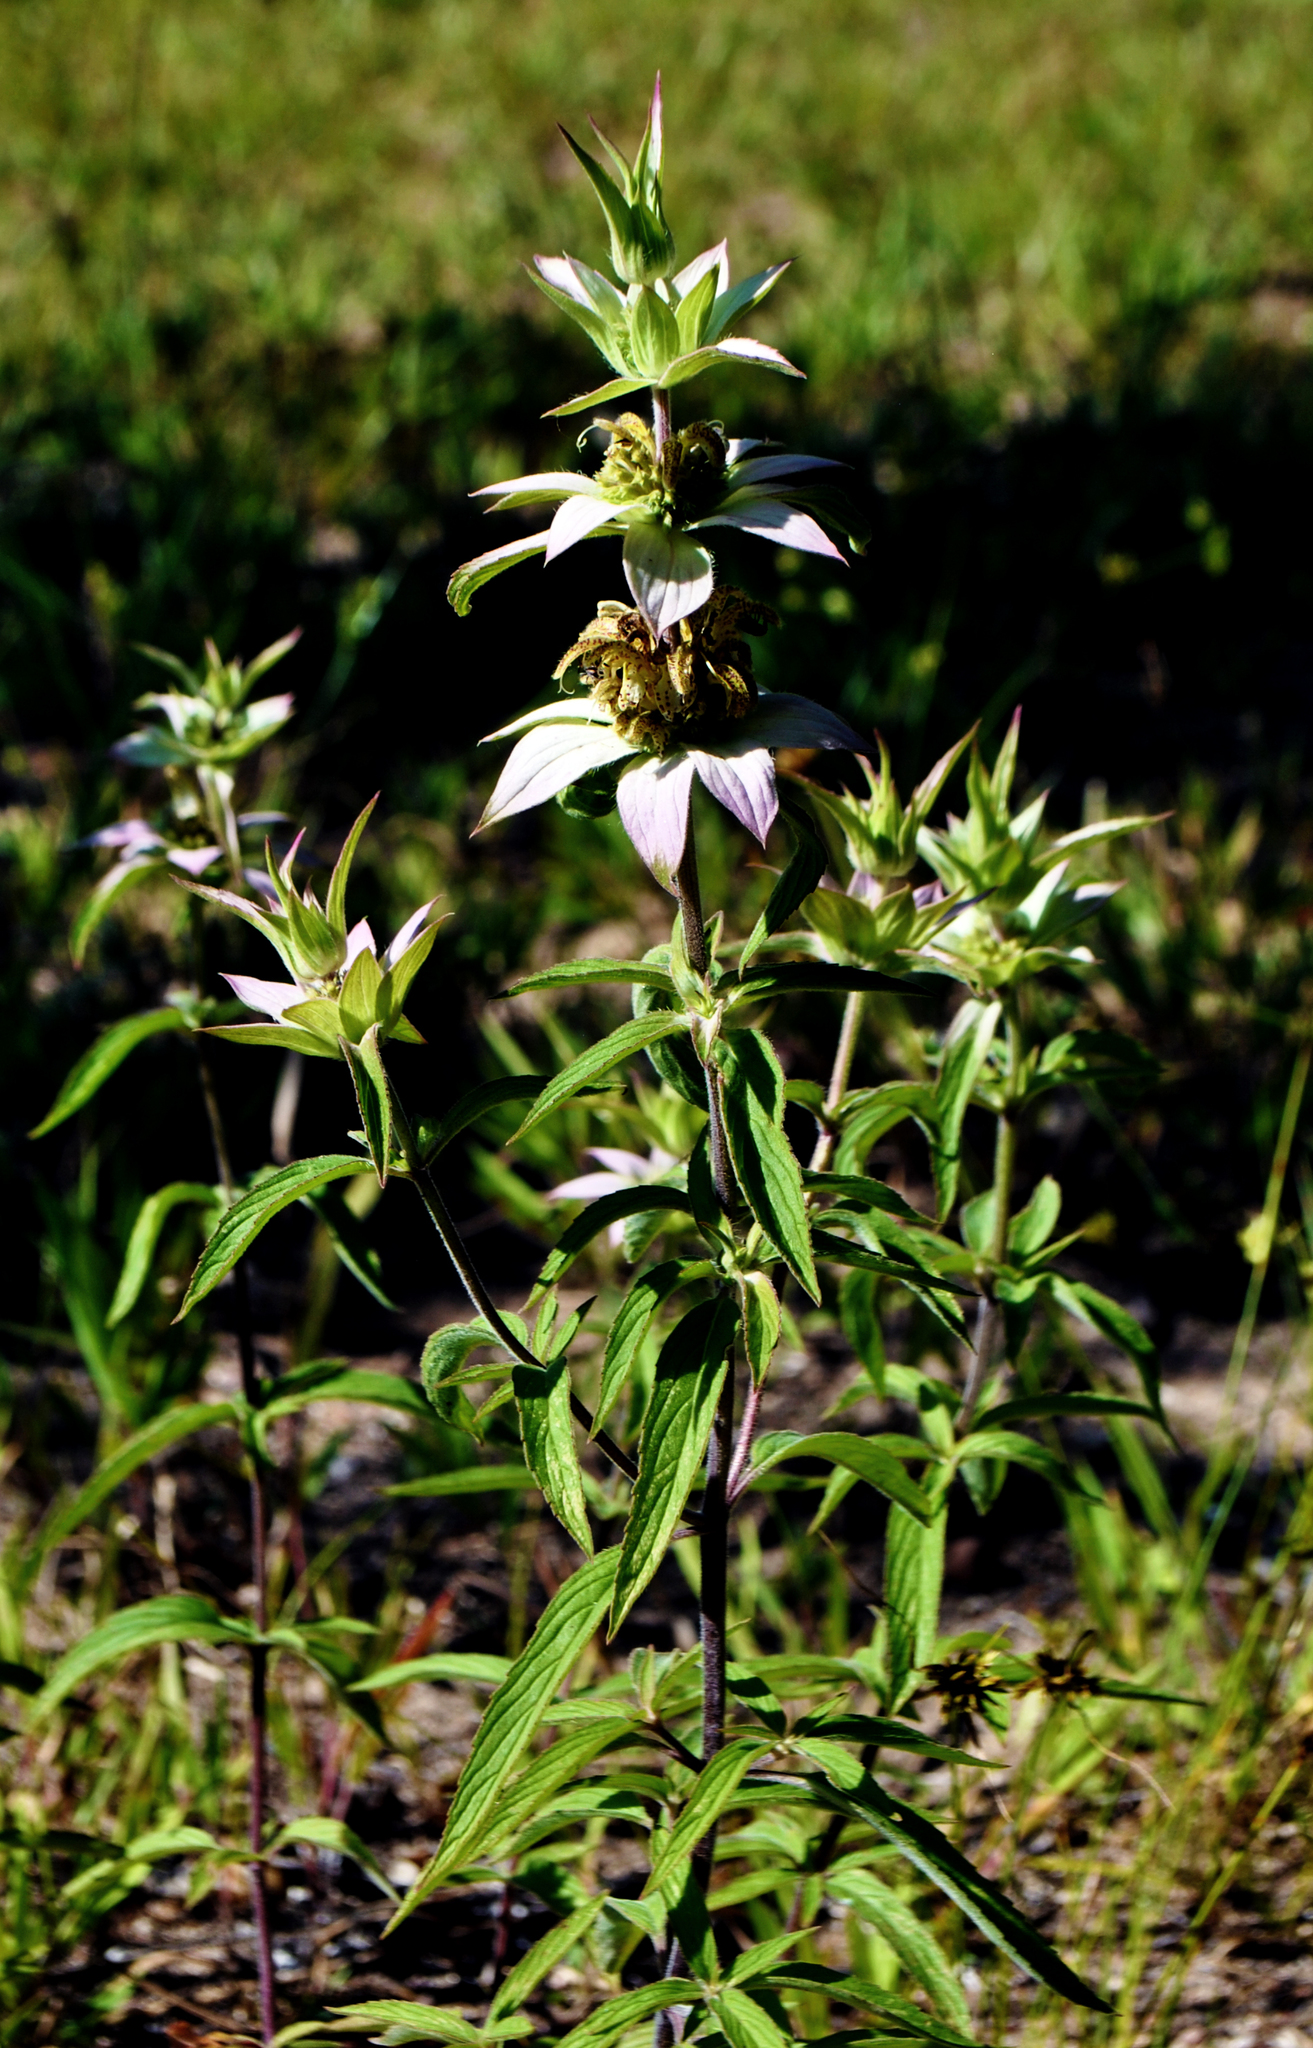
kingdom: Plantae
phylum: Tracheophyta
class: Magnoliopsida
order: Lamiales
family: Lamiaceae
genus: Monarda
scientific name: Monarda punctata
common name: Dotted monarda
